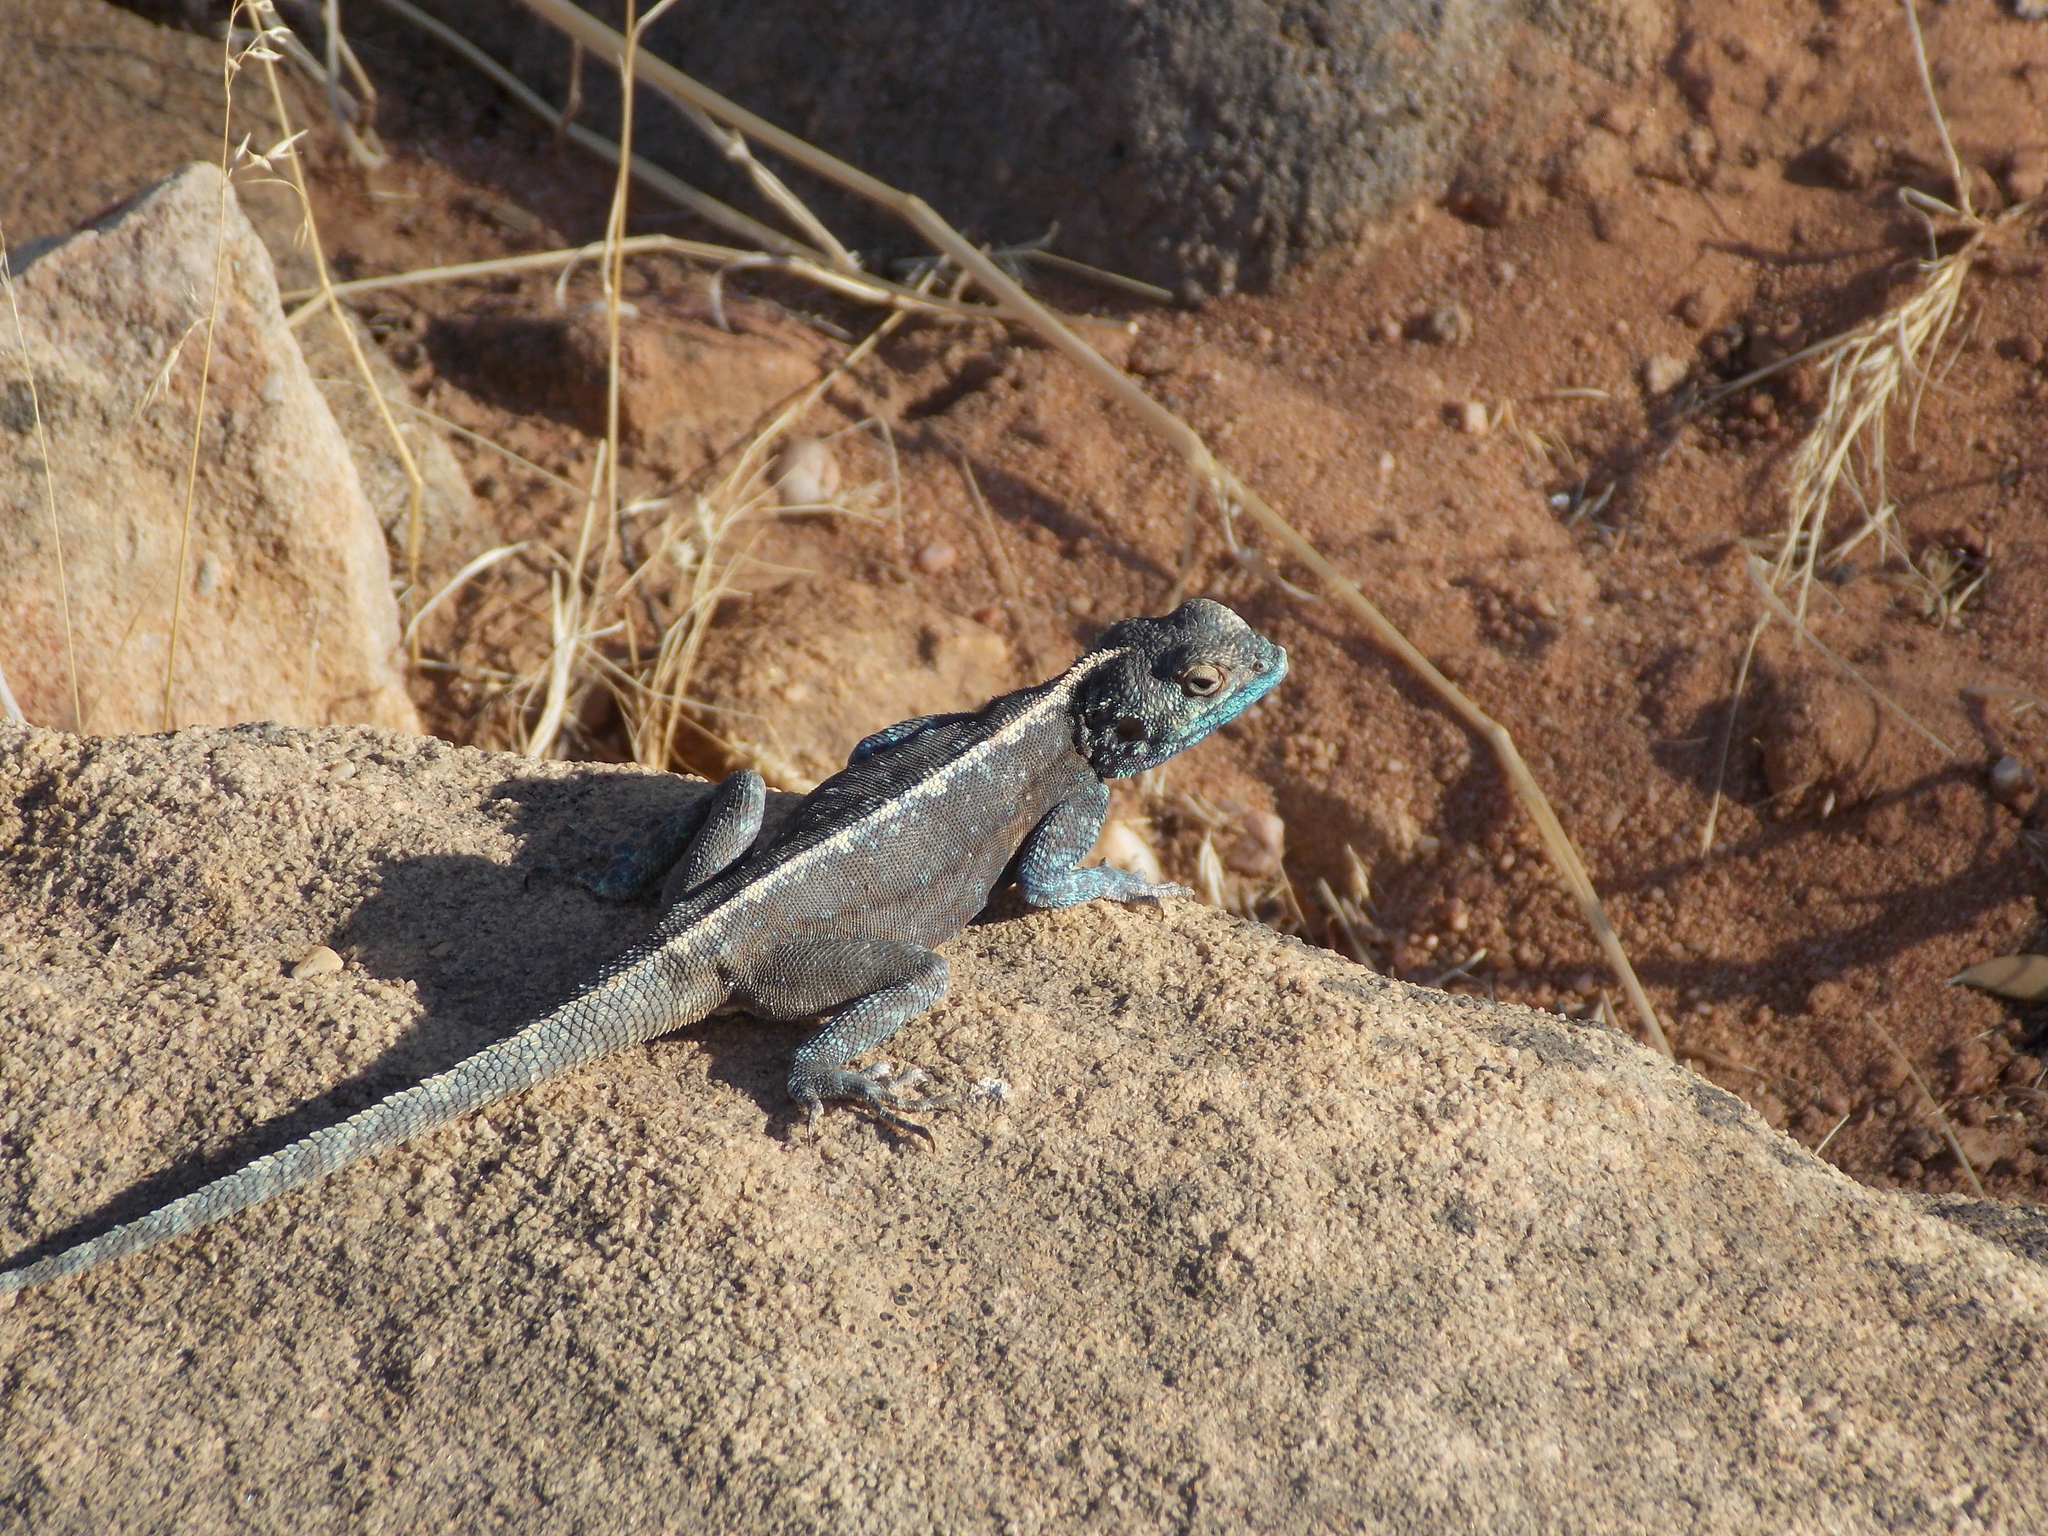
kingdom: Animalia
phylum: Chordata
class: Squamata
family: Agamidae
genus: Agama
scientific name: Agama atra
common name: Southern african rock agama
